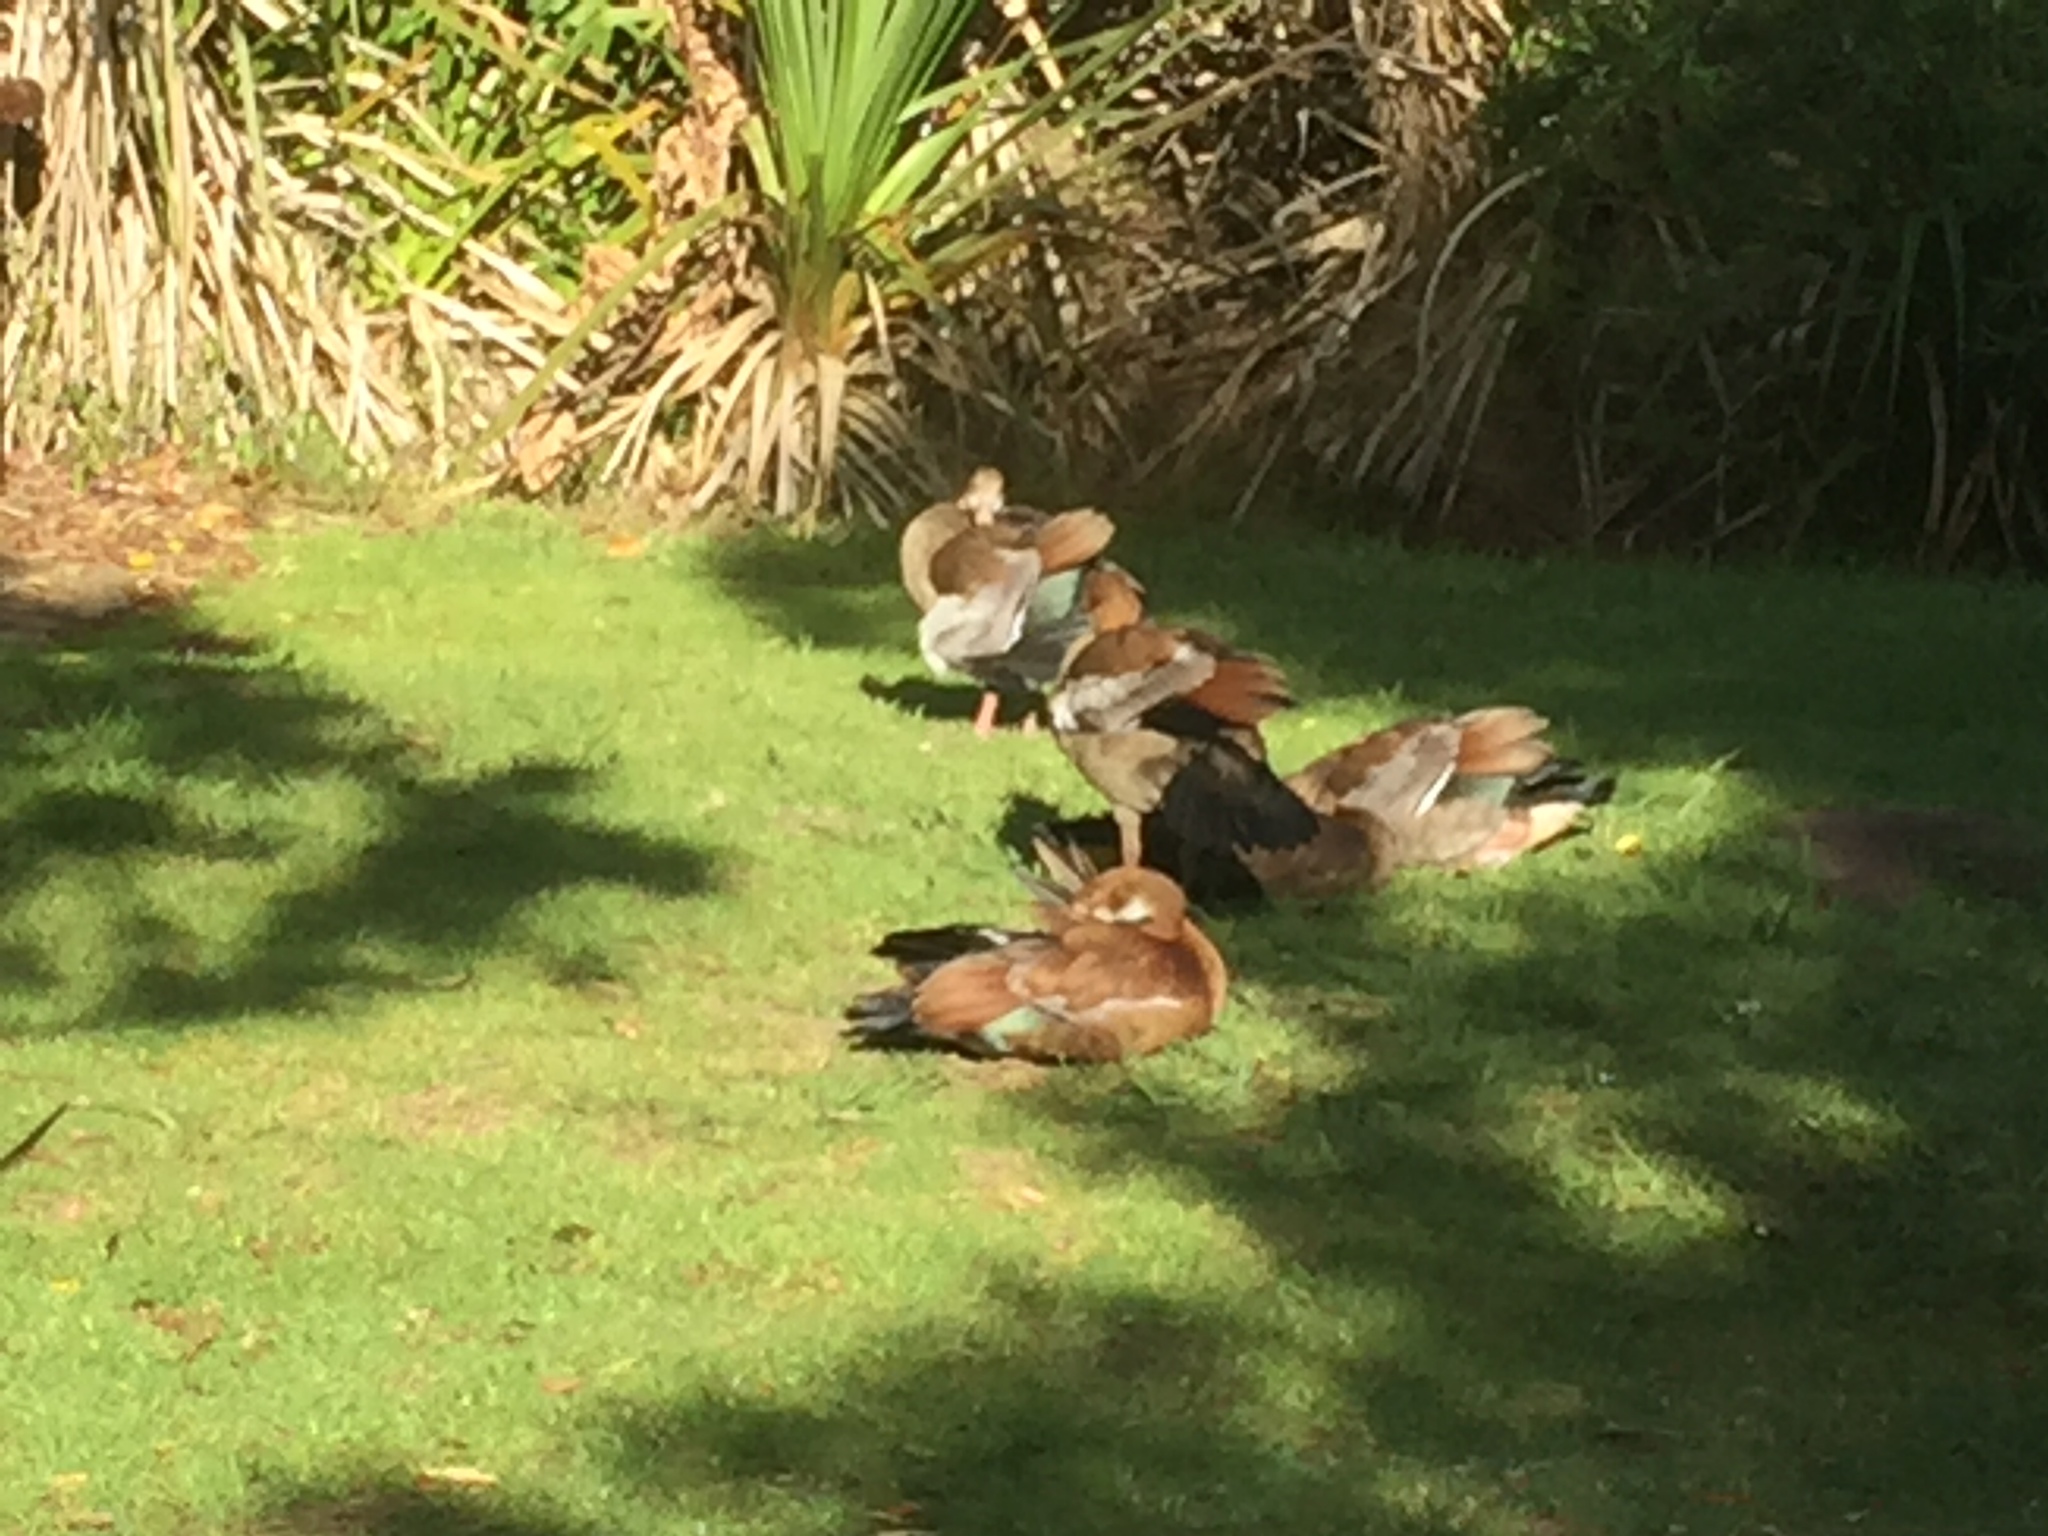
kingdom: Animalia
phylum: Chordata
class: Aves
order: Anseriformes
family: Anatidae
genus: Alopochen
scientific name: Alopochen aegyptiaca
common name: Egyptian goose
